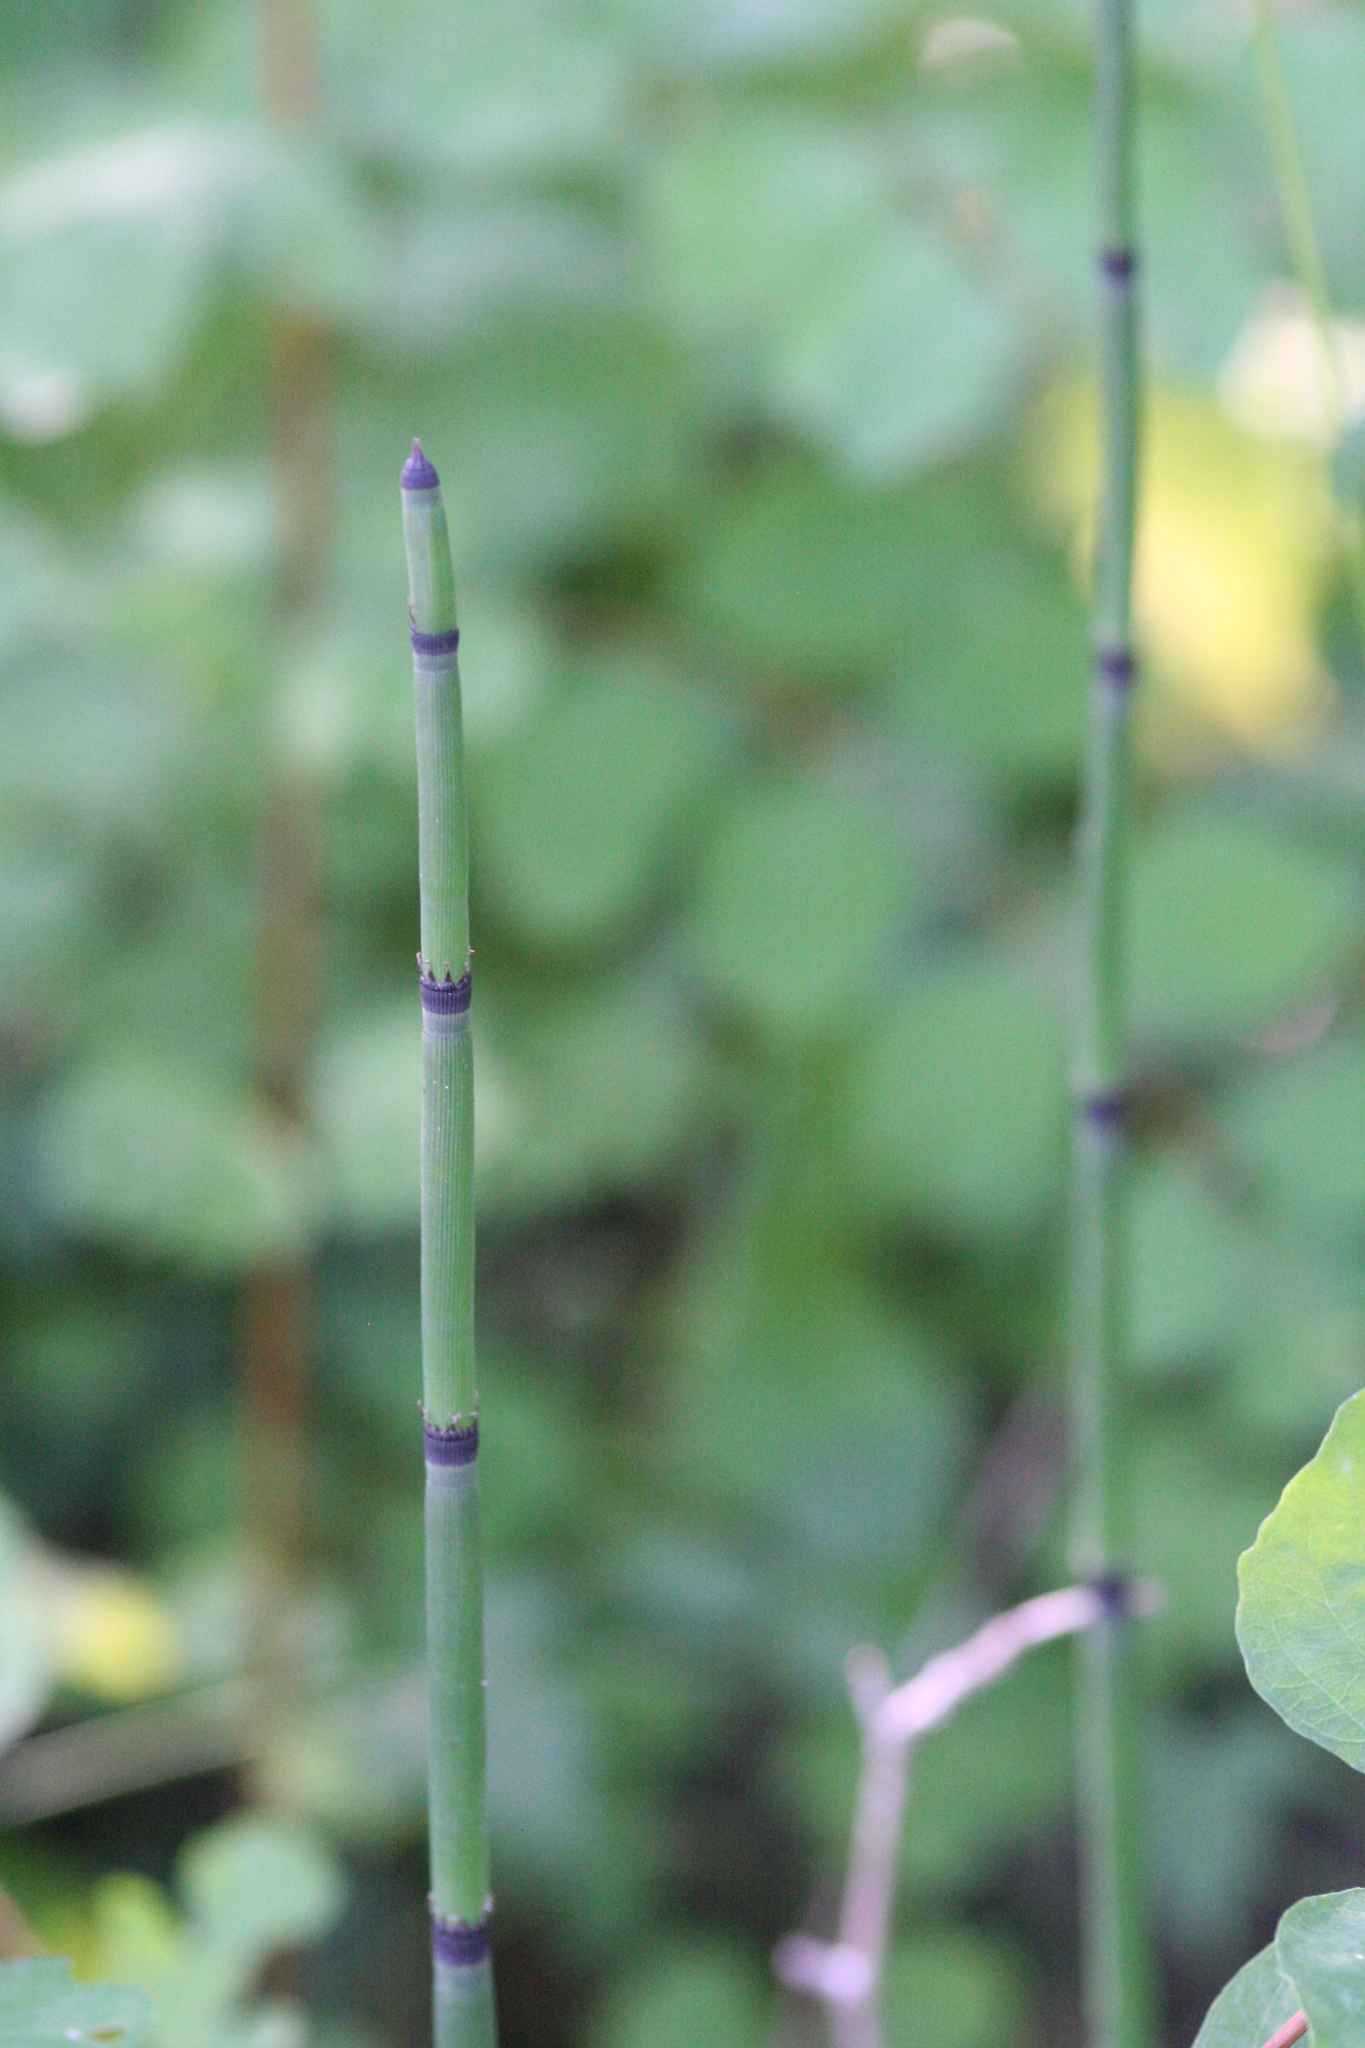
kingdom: Plantae
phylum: Tracheophyta
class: Polypodiopsida
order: Equisetales
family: Equisetaceae
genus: Equisetum
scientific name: Equisetum praealtum
